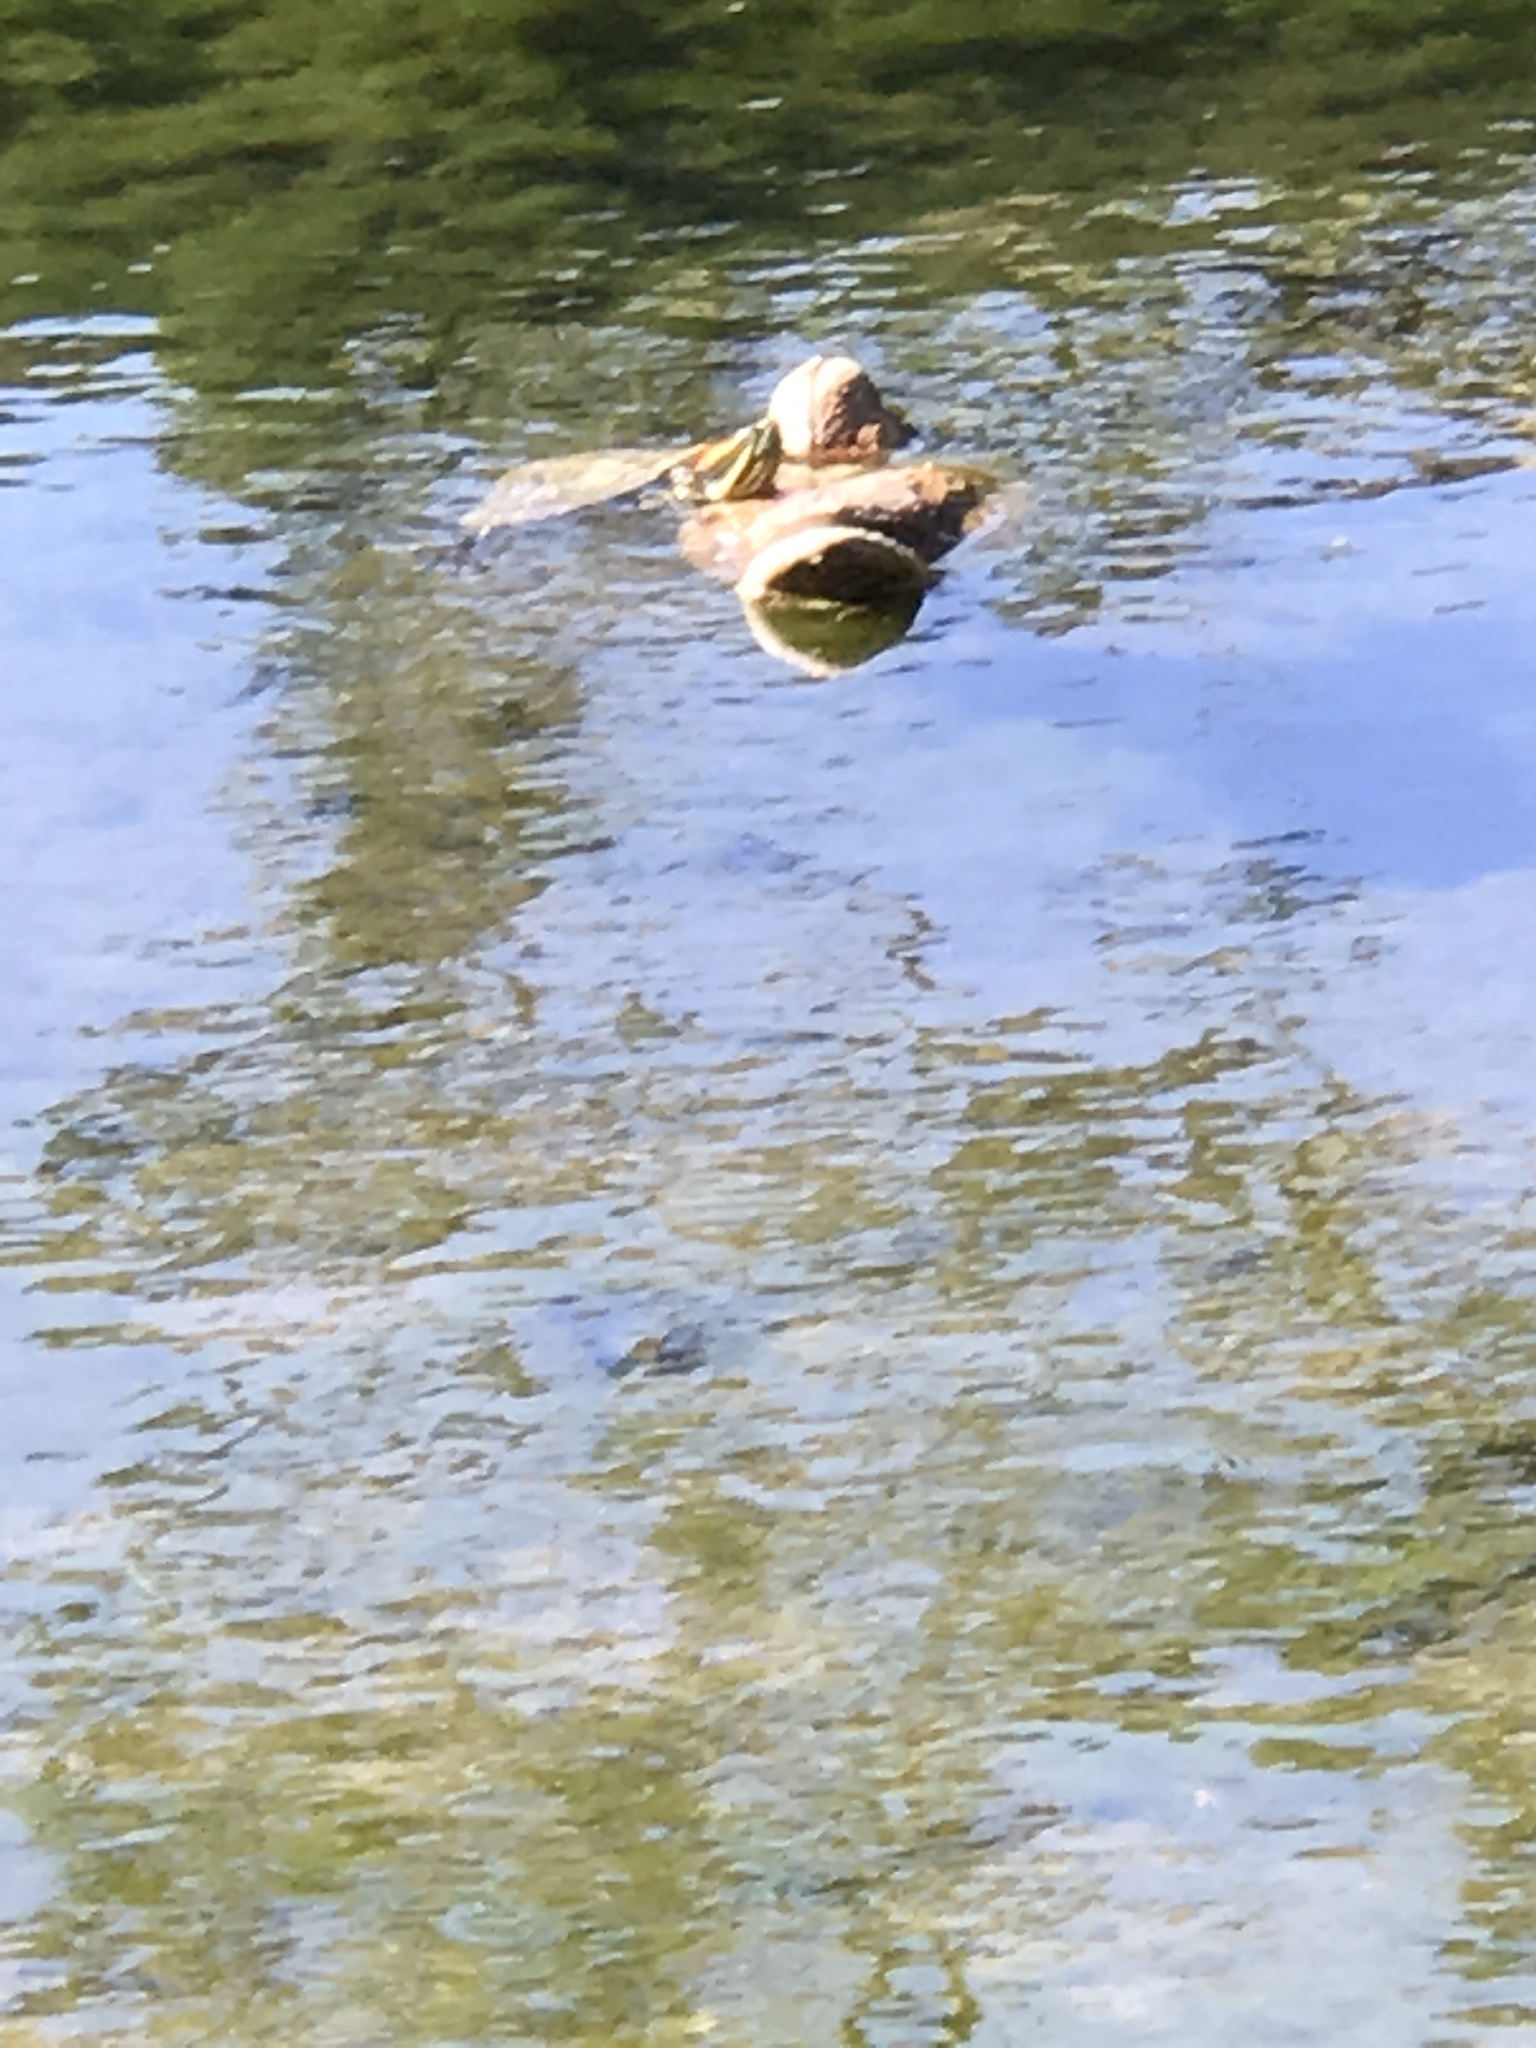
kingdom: Animalia
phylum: Chordata
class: Testudines
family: Emydidae
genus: Trachemys
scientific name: Trachemys scripta
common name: Slider
